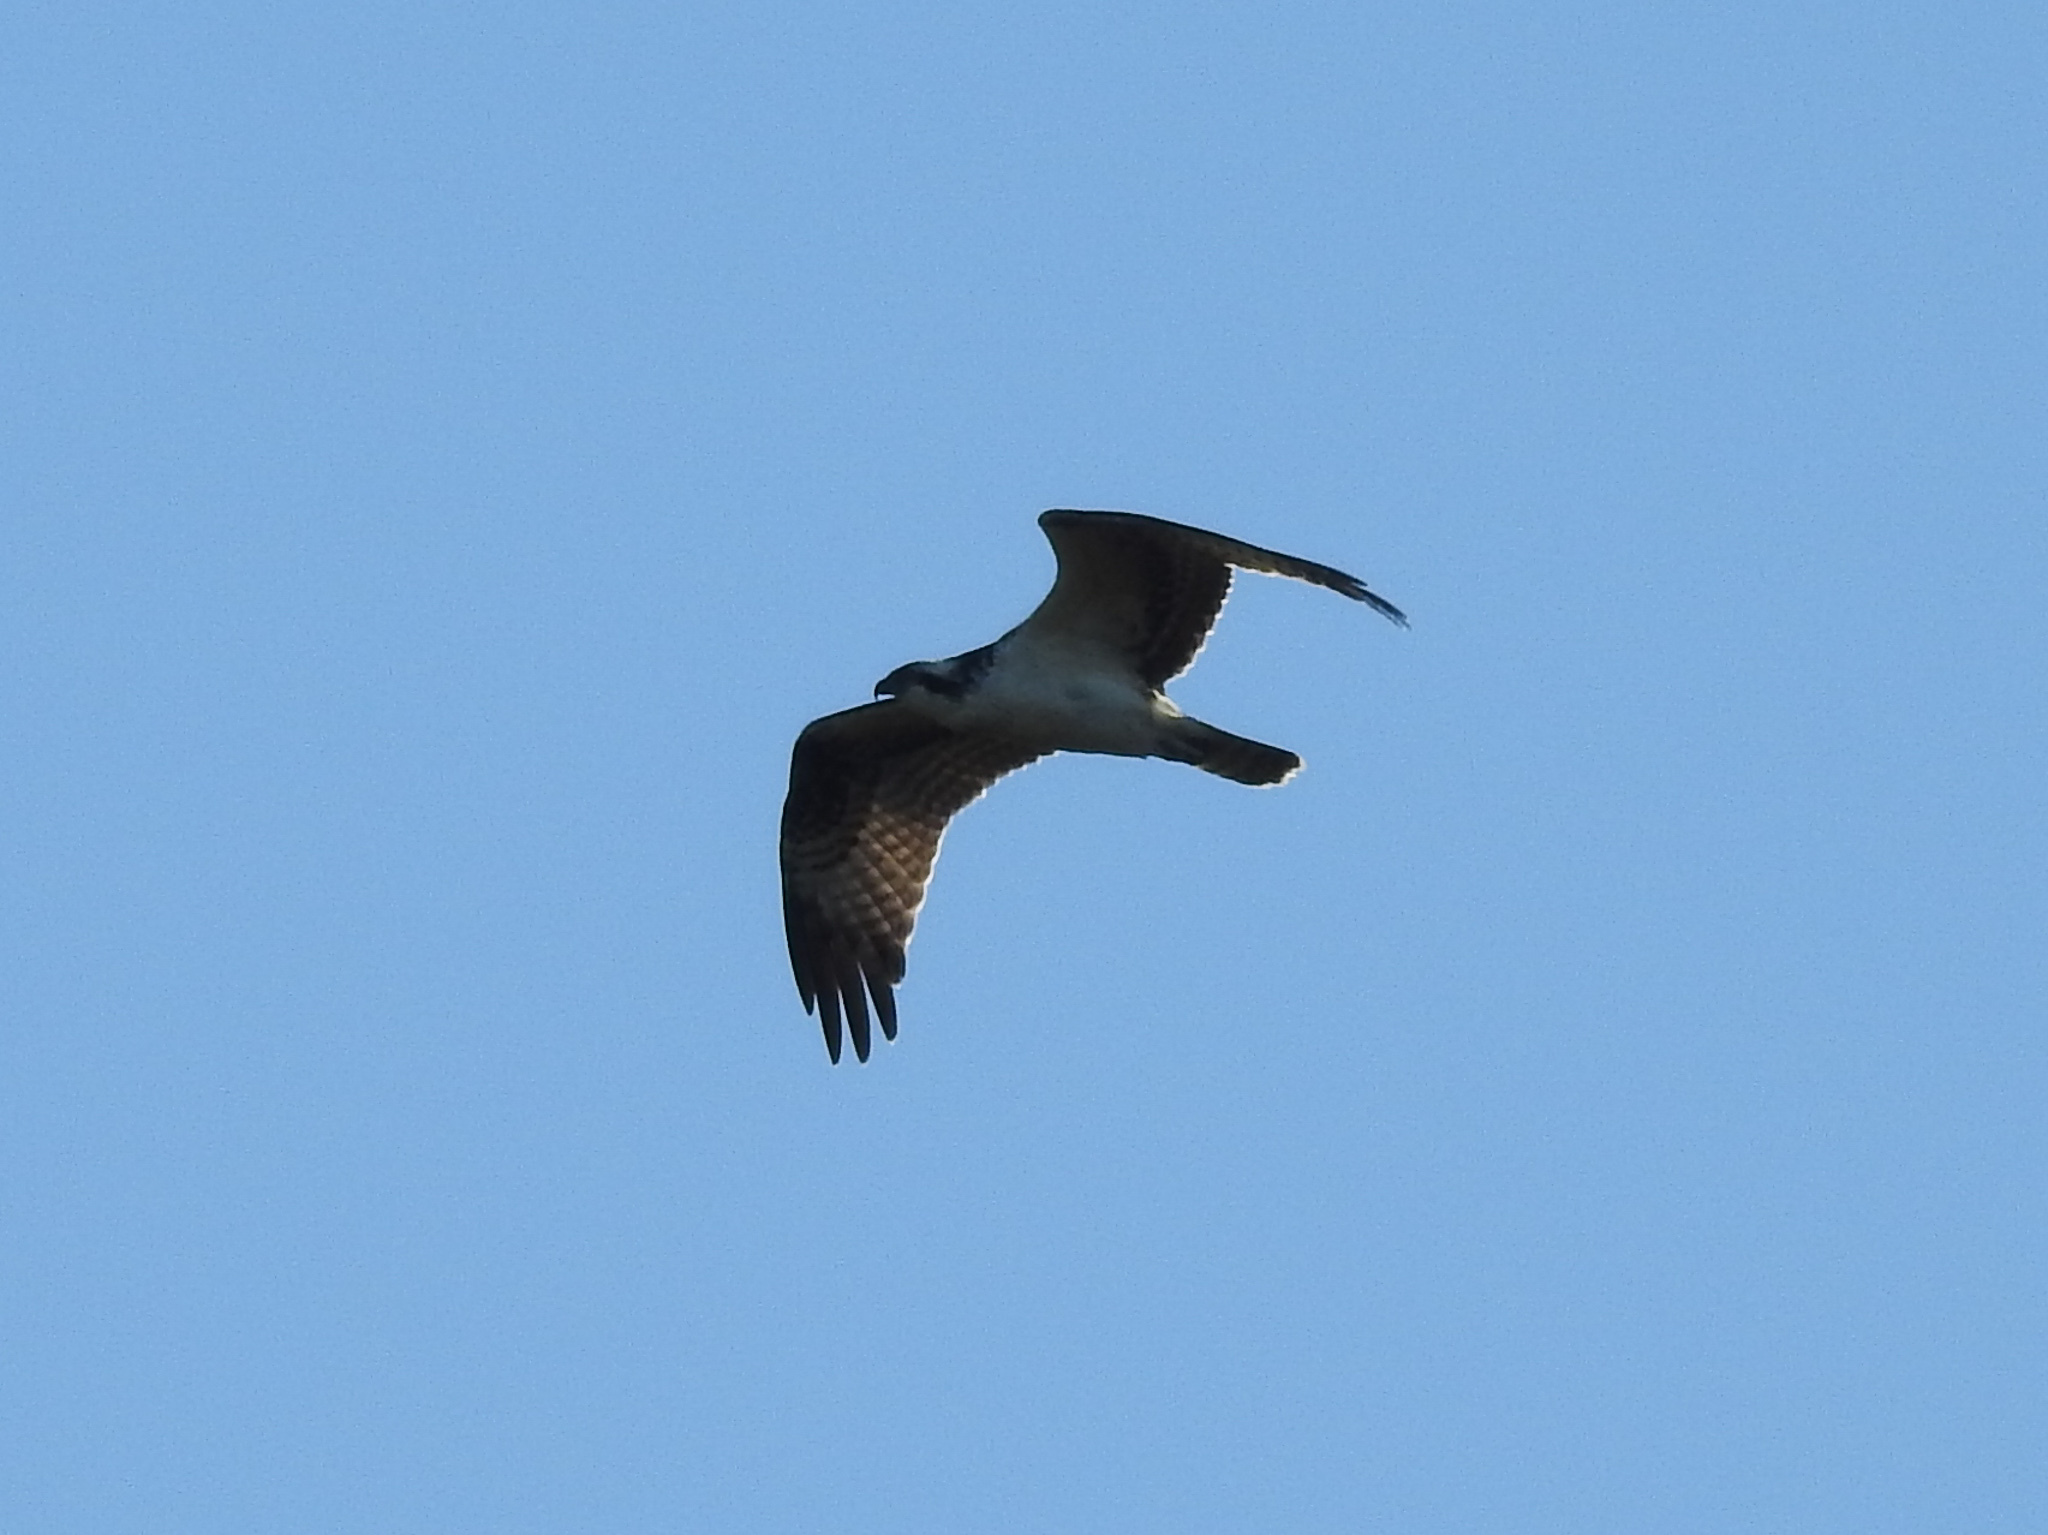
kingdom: Animalia
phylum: Chordata
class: Aves
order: Accipitriformes
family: Pandionidae
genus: Pandion
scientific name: Pandion haliaetus
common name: Osprey
